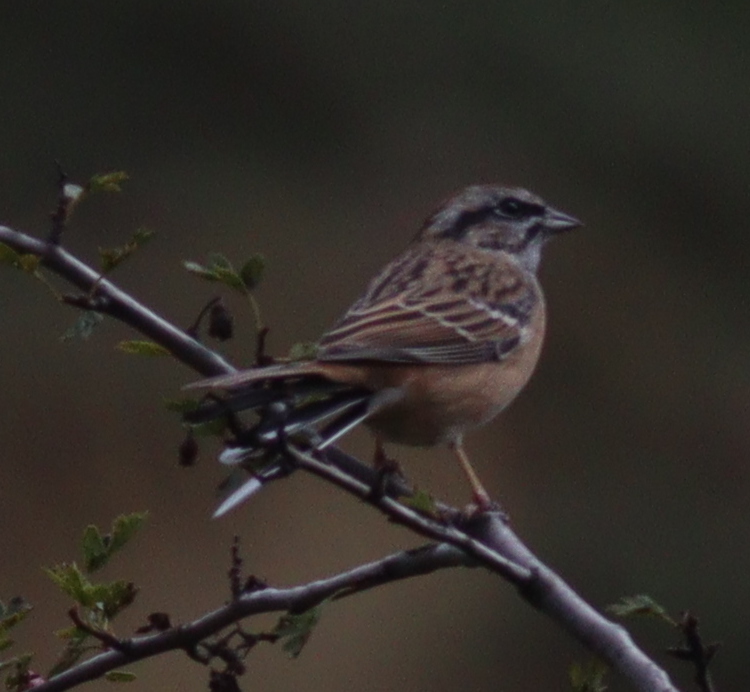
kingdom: Animalia
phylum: Chordata
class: Aves
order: Passeriformes
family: Emberizidae
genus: Emberiza
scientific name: Emberiza cia
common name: Rock bunting
